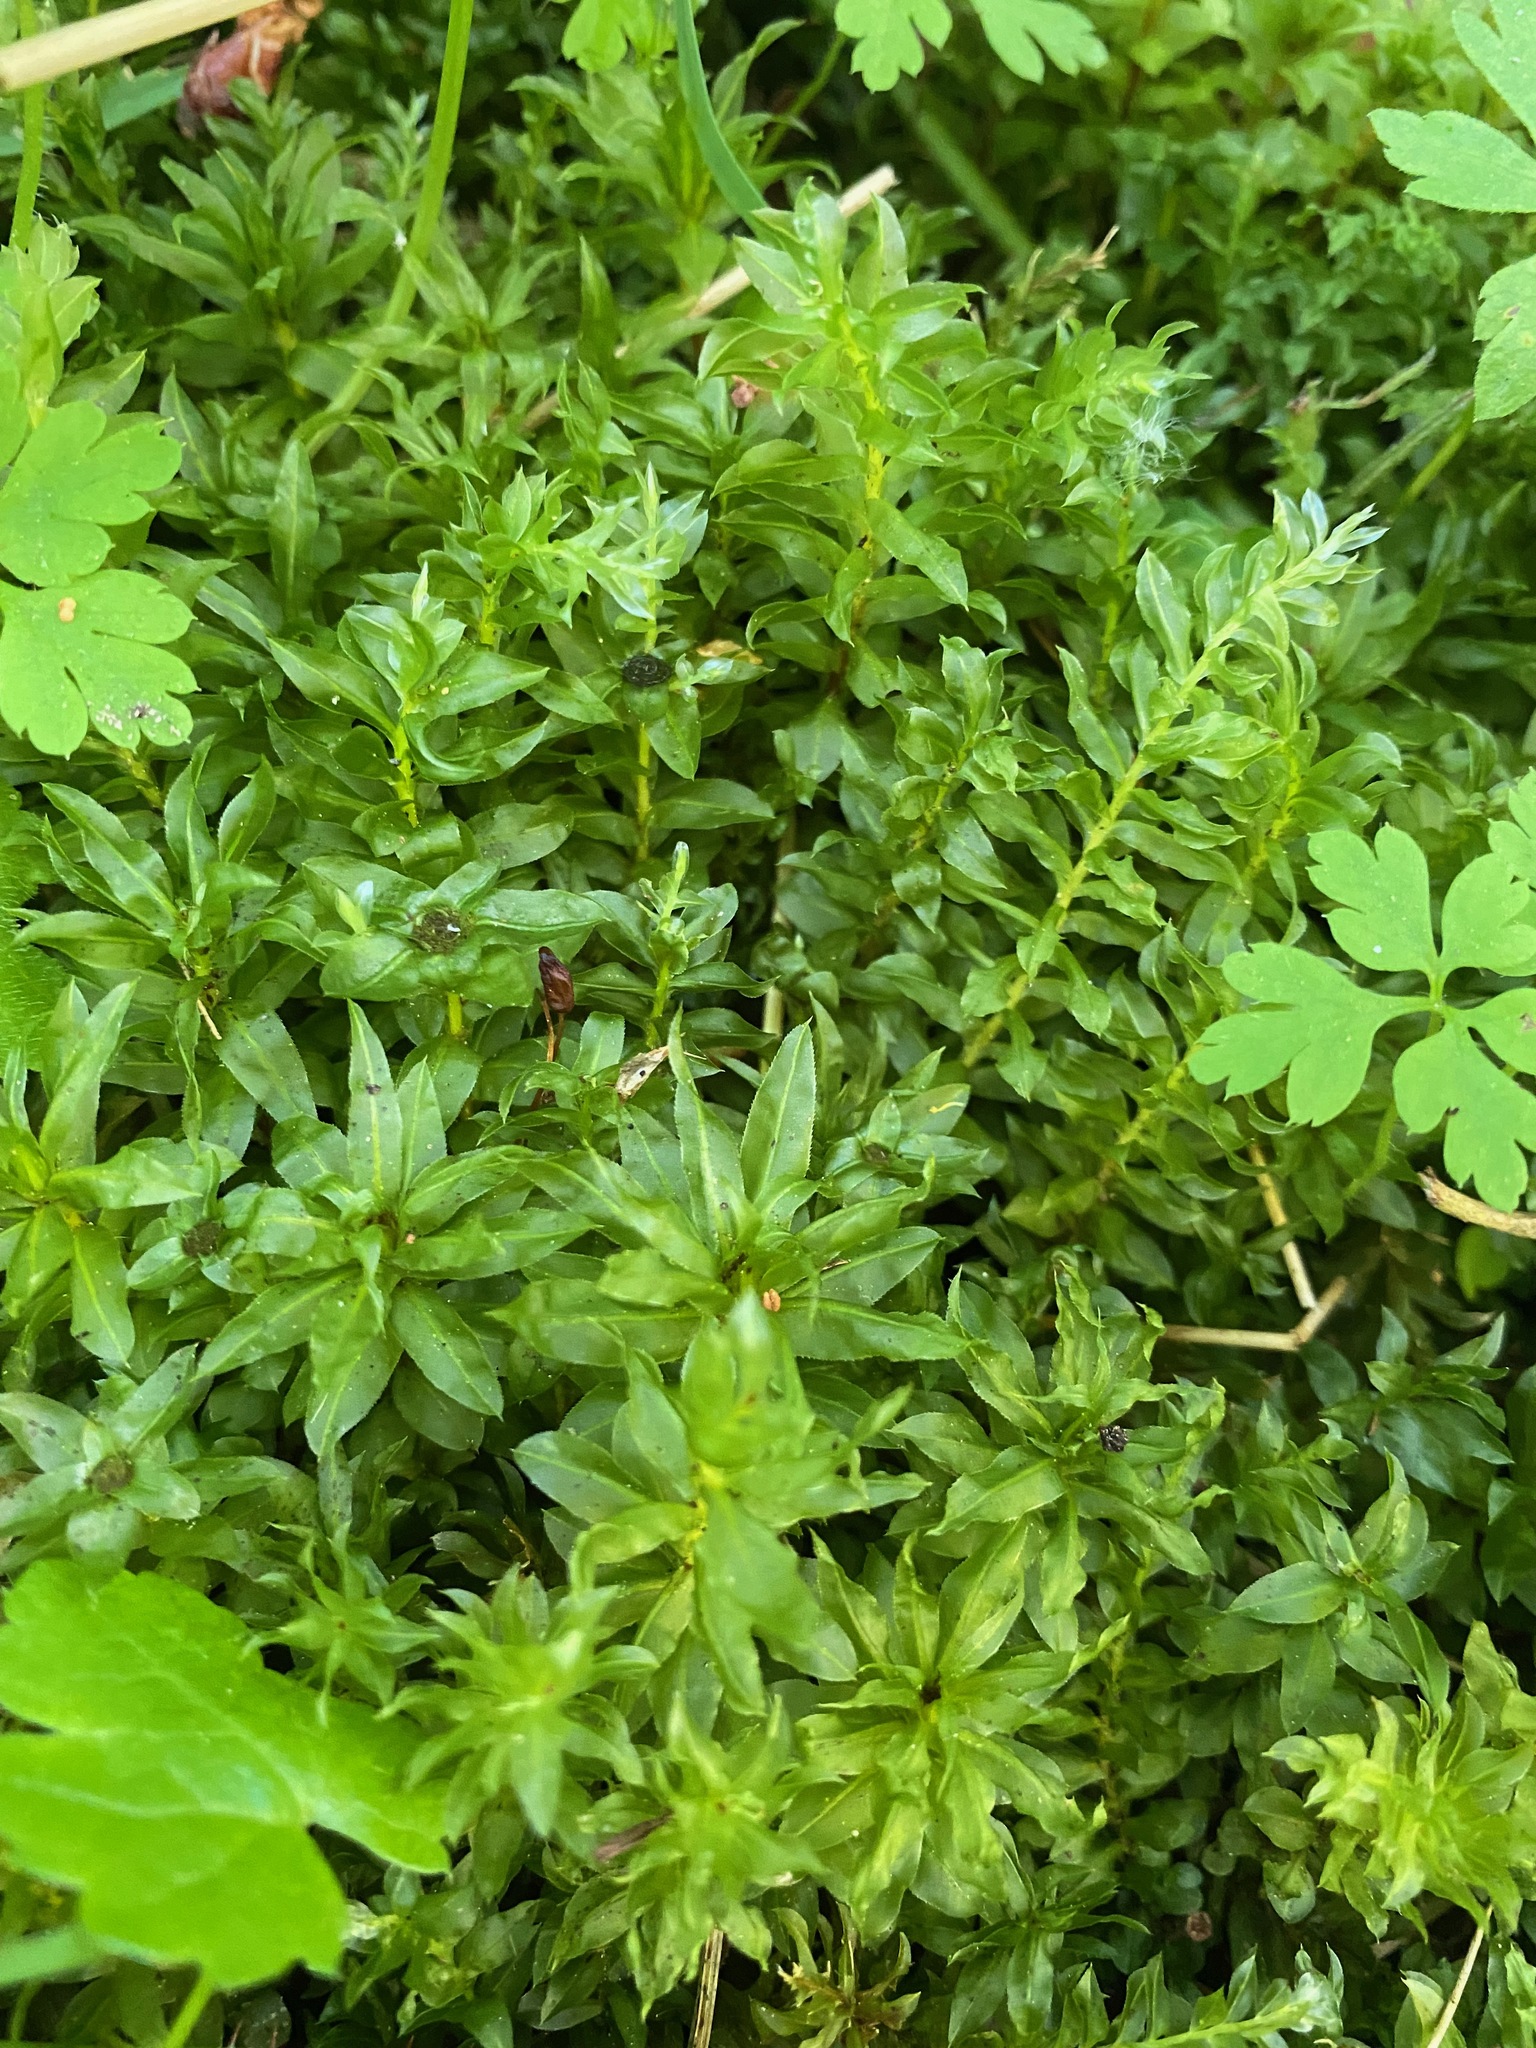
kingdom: Plantae
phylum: Bryophyta
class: Bryopsida
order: Bryales
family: Mniaceae
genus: Plagiomnium
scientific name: Plagiomnium insigne
